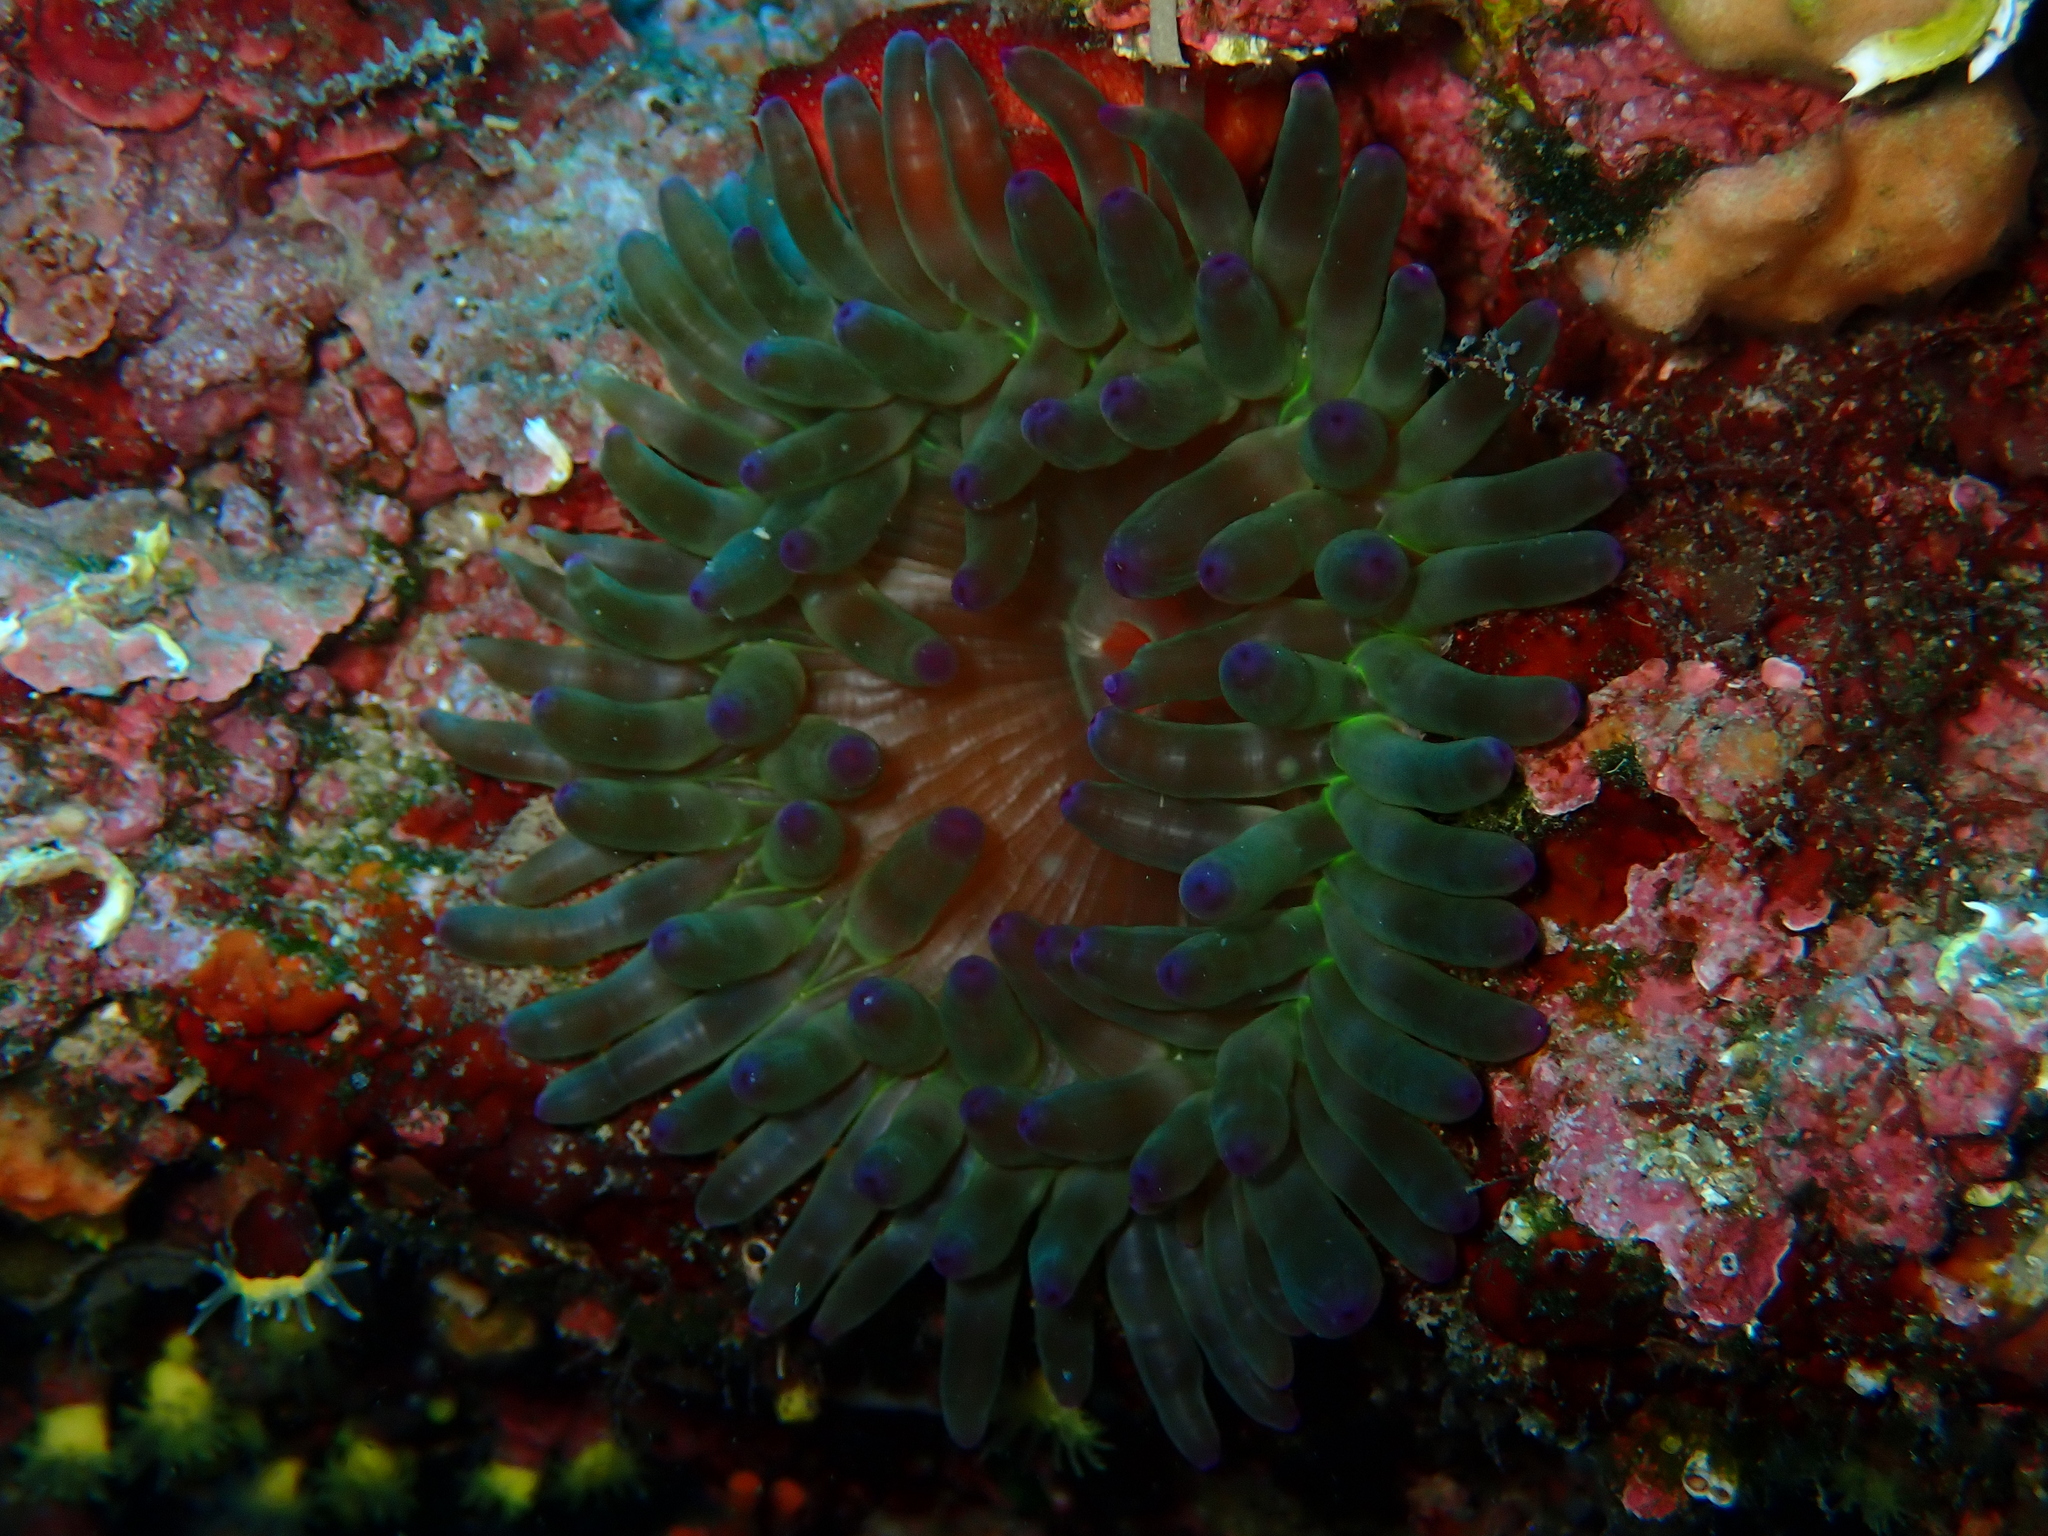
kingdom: Animalia
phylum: Cnidaria
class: Anthozoa
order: Actiniaria
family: Actiniidae
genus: Cribrinopsis
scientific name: Cribrinopsis crassa
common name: Fat anemone
